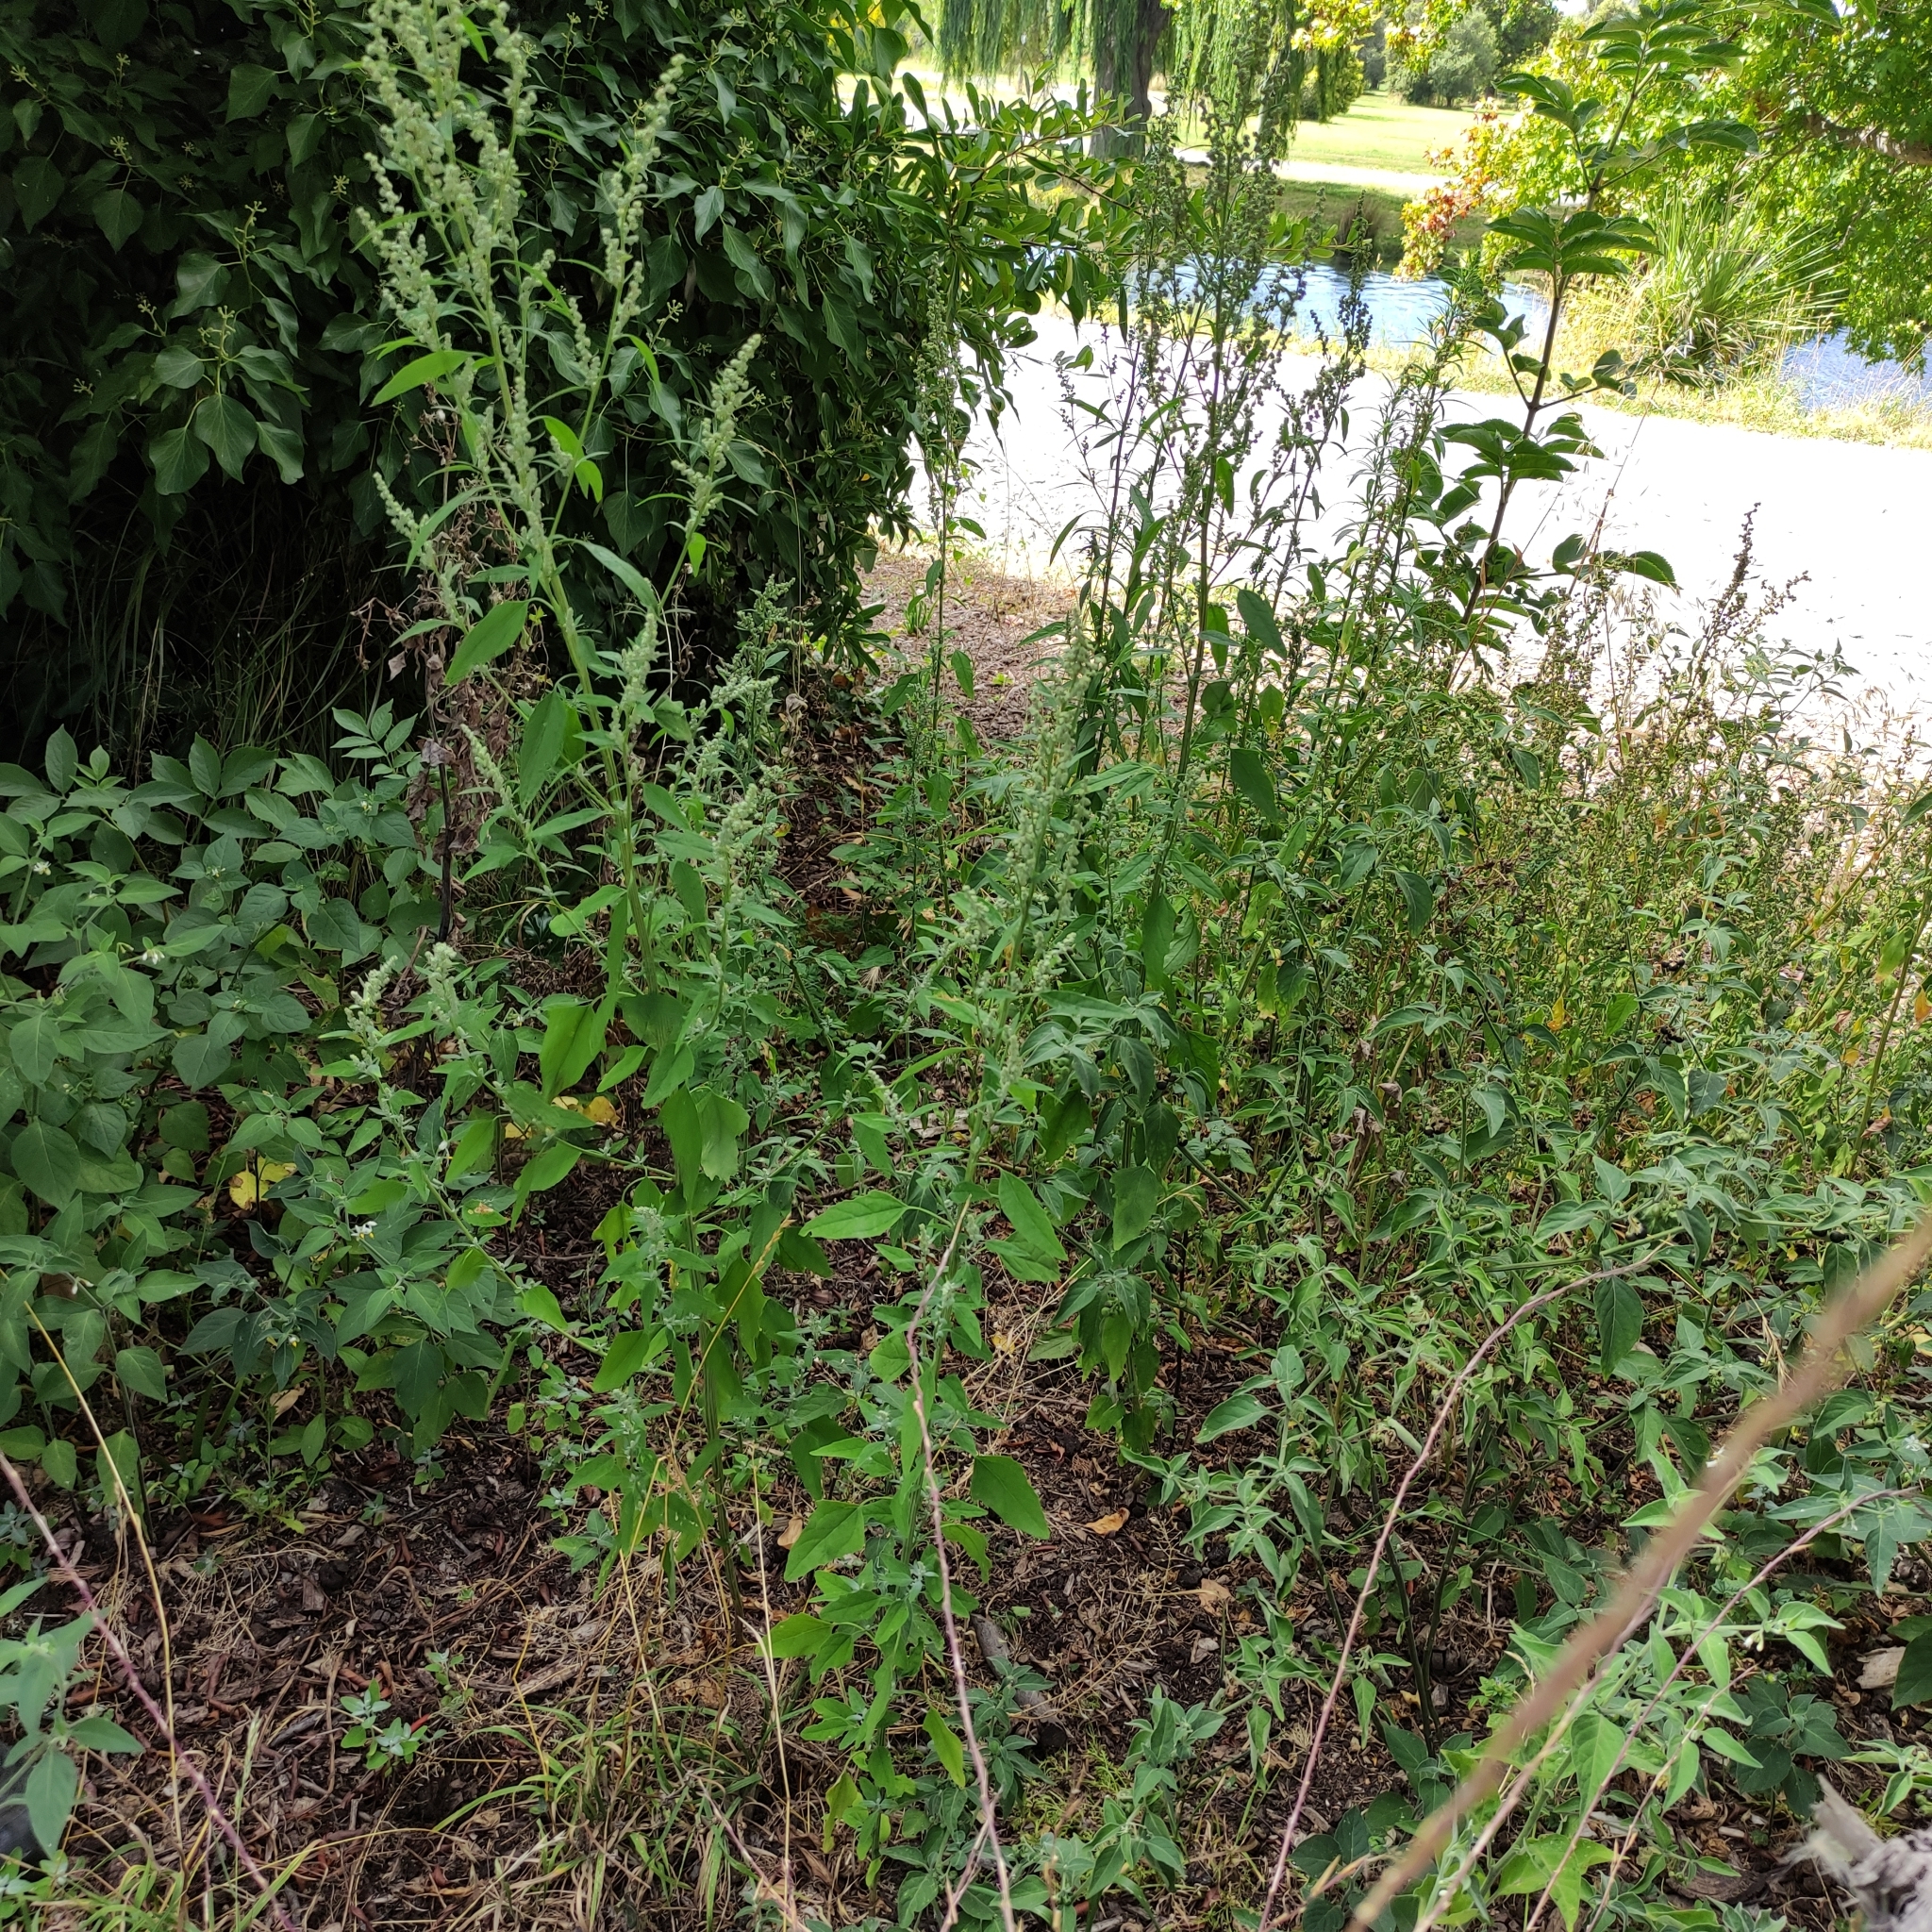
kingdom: Plantae
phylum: Tracheophyta
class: Magnoliopsida
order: Caryophyllales
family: Amaranthaceae
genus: Chenopodium
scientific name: Chenopodium album
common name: Fat-hen
